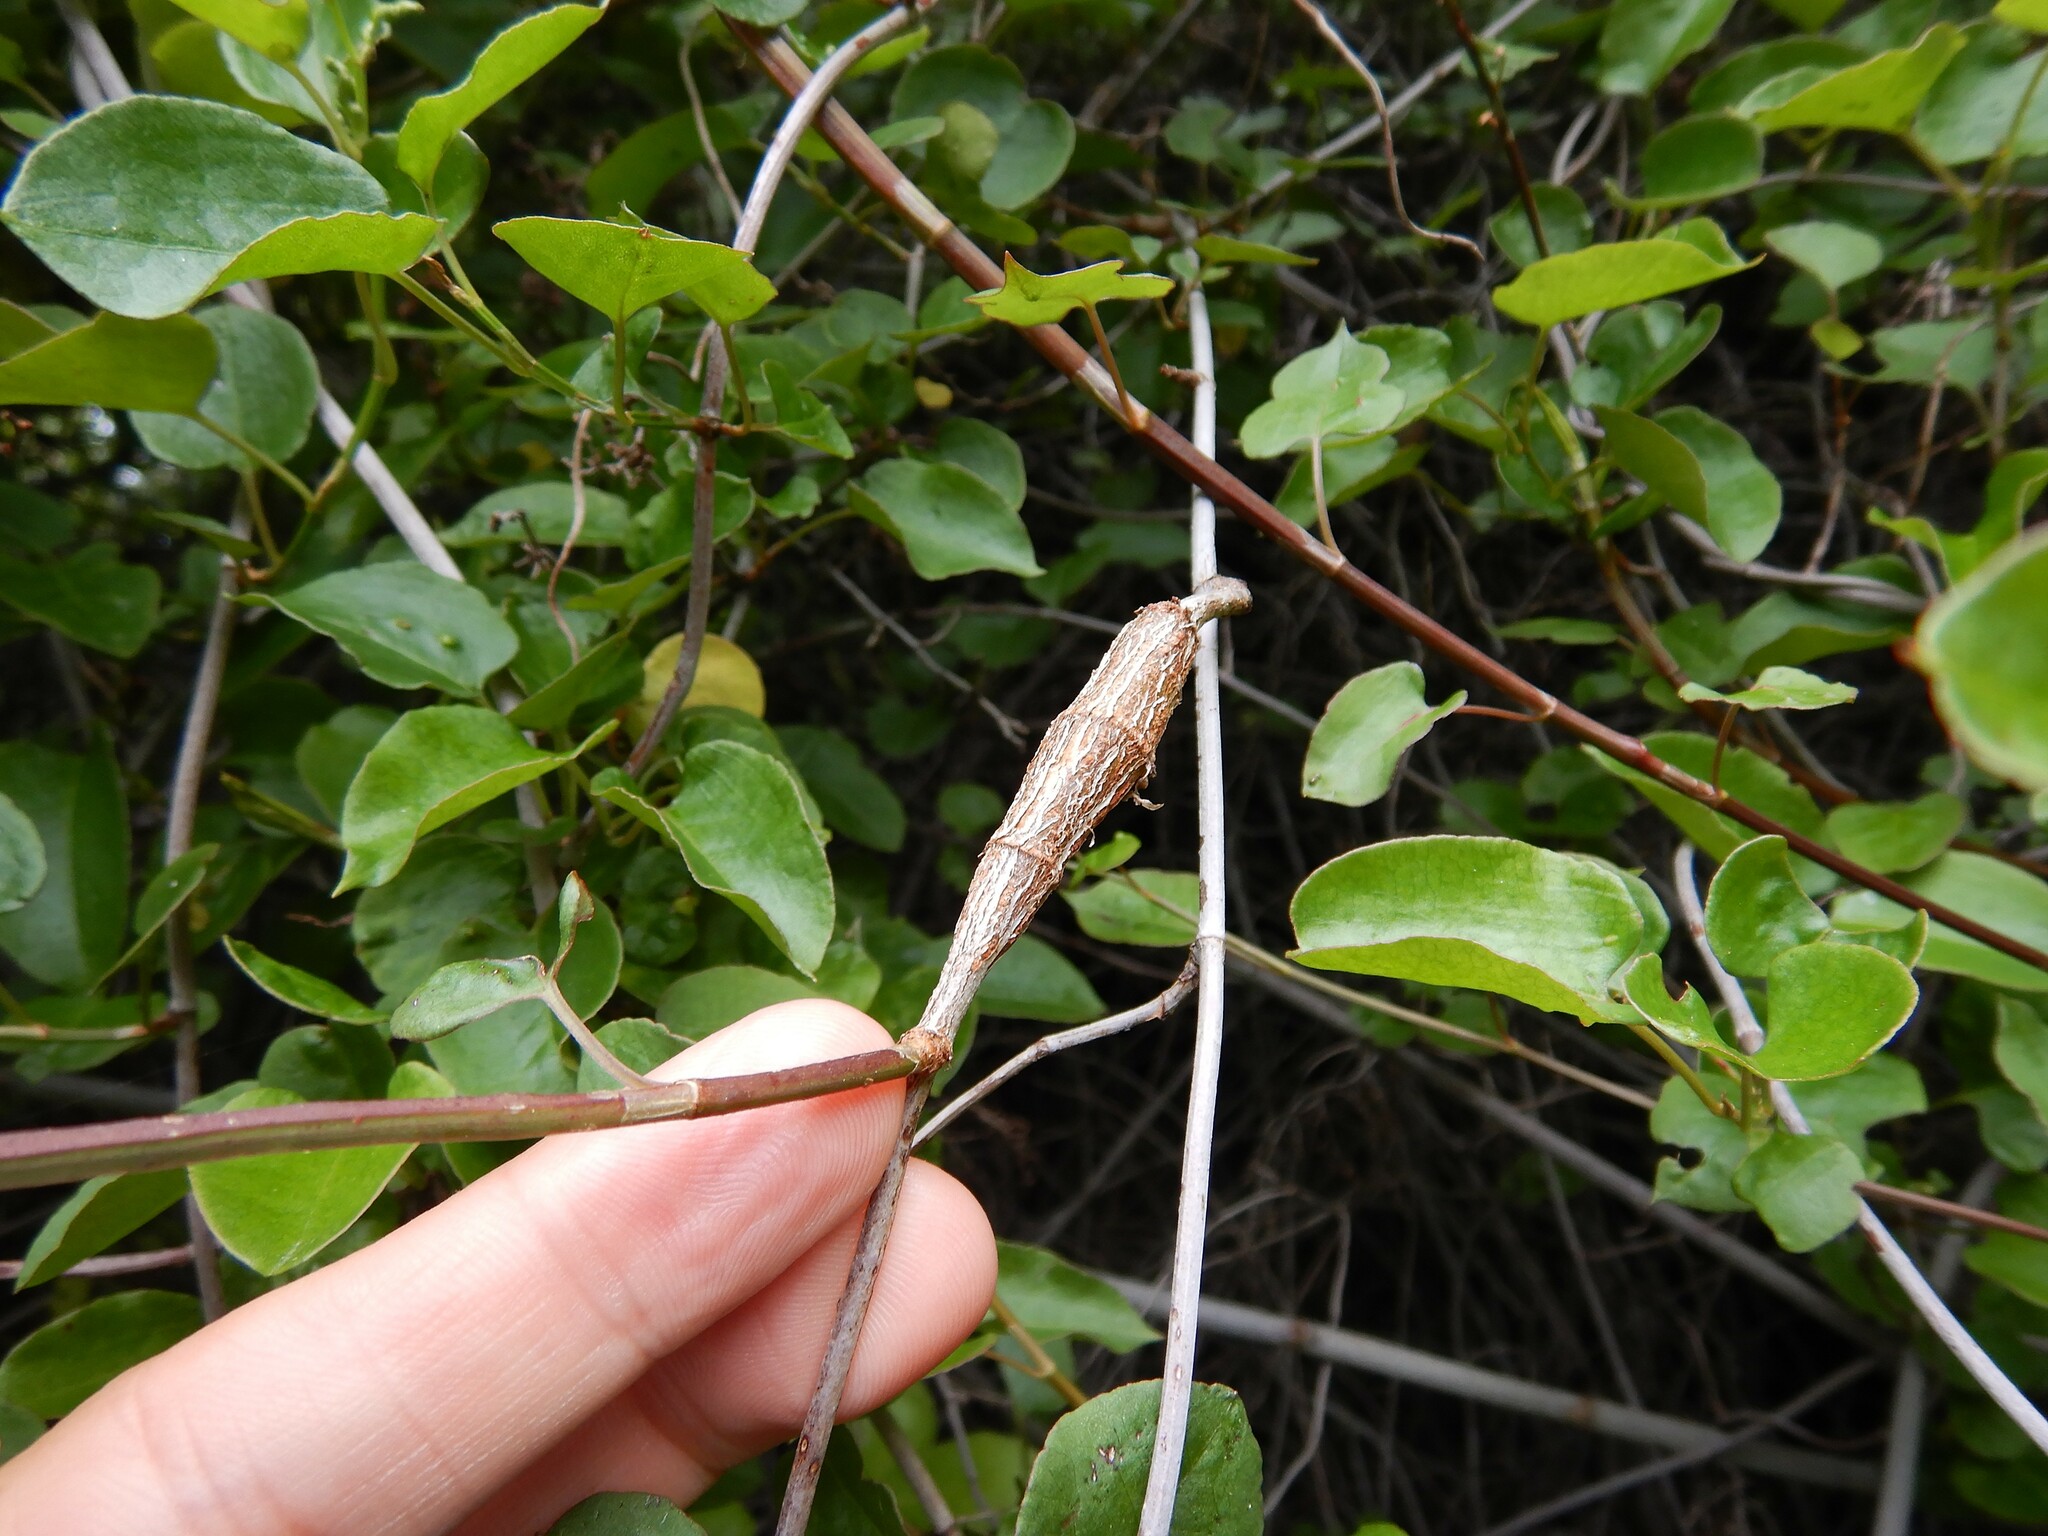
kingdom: Animalia
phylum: Arthropoda
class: Insecta
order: Lepidoptera
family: Thyrididae
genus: Morova
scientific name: Morova subfasciata
